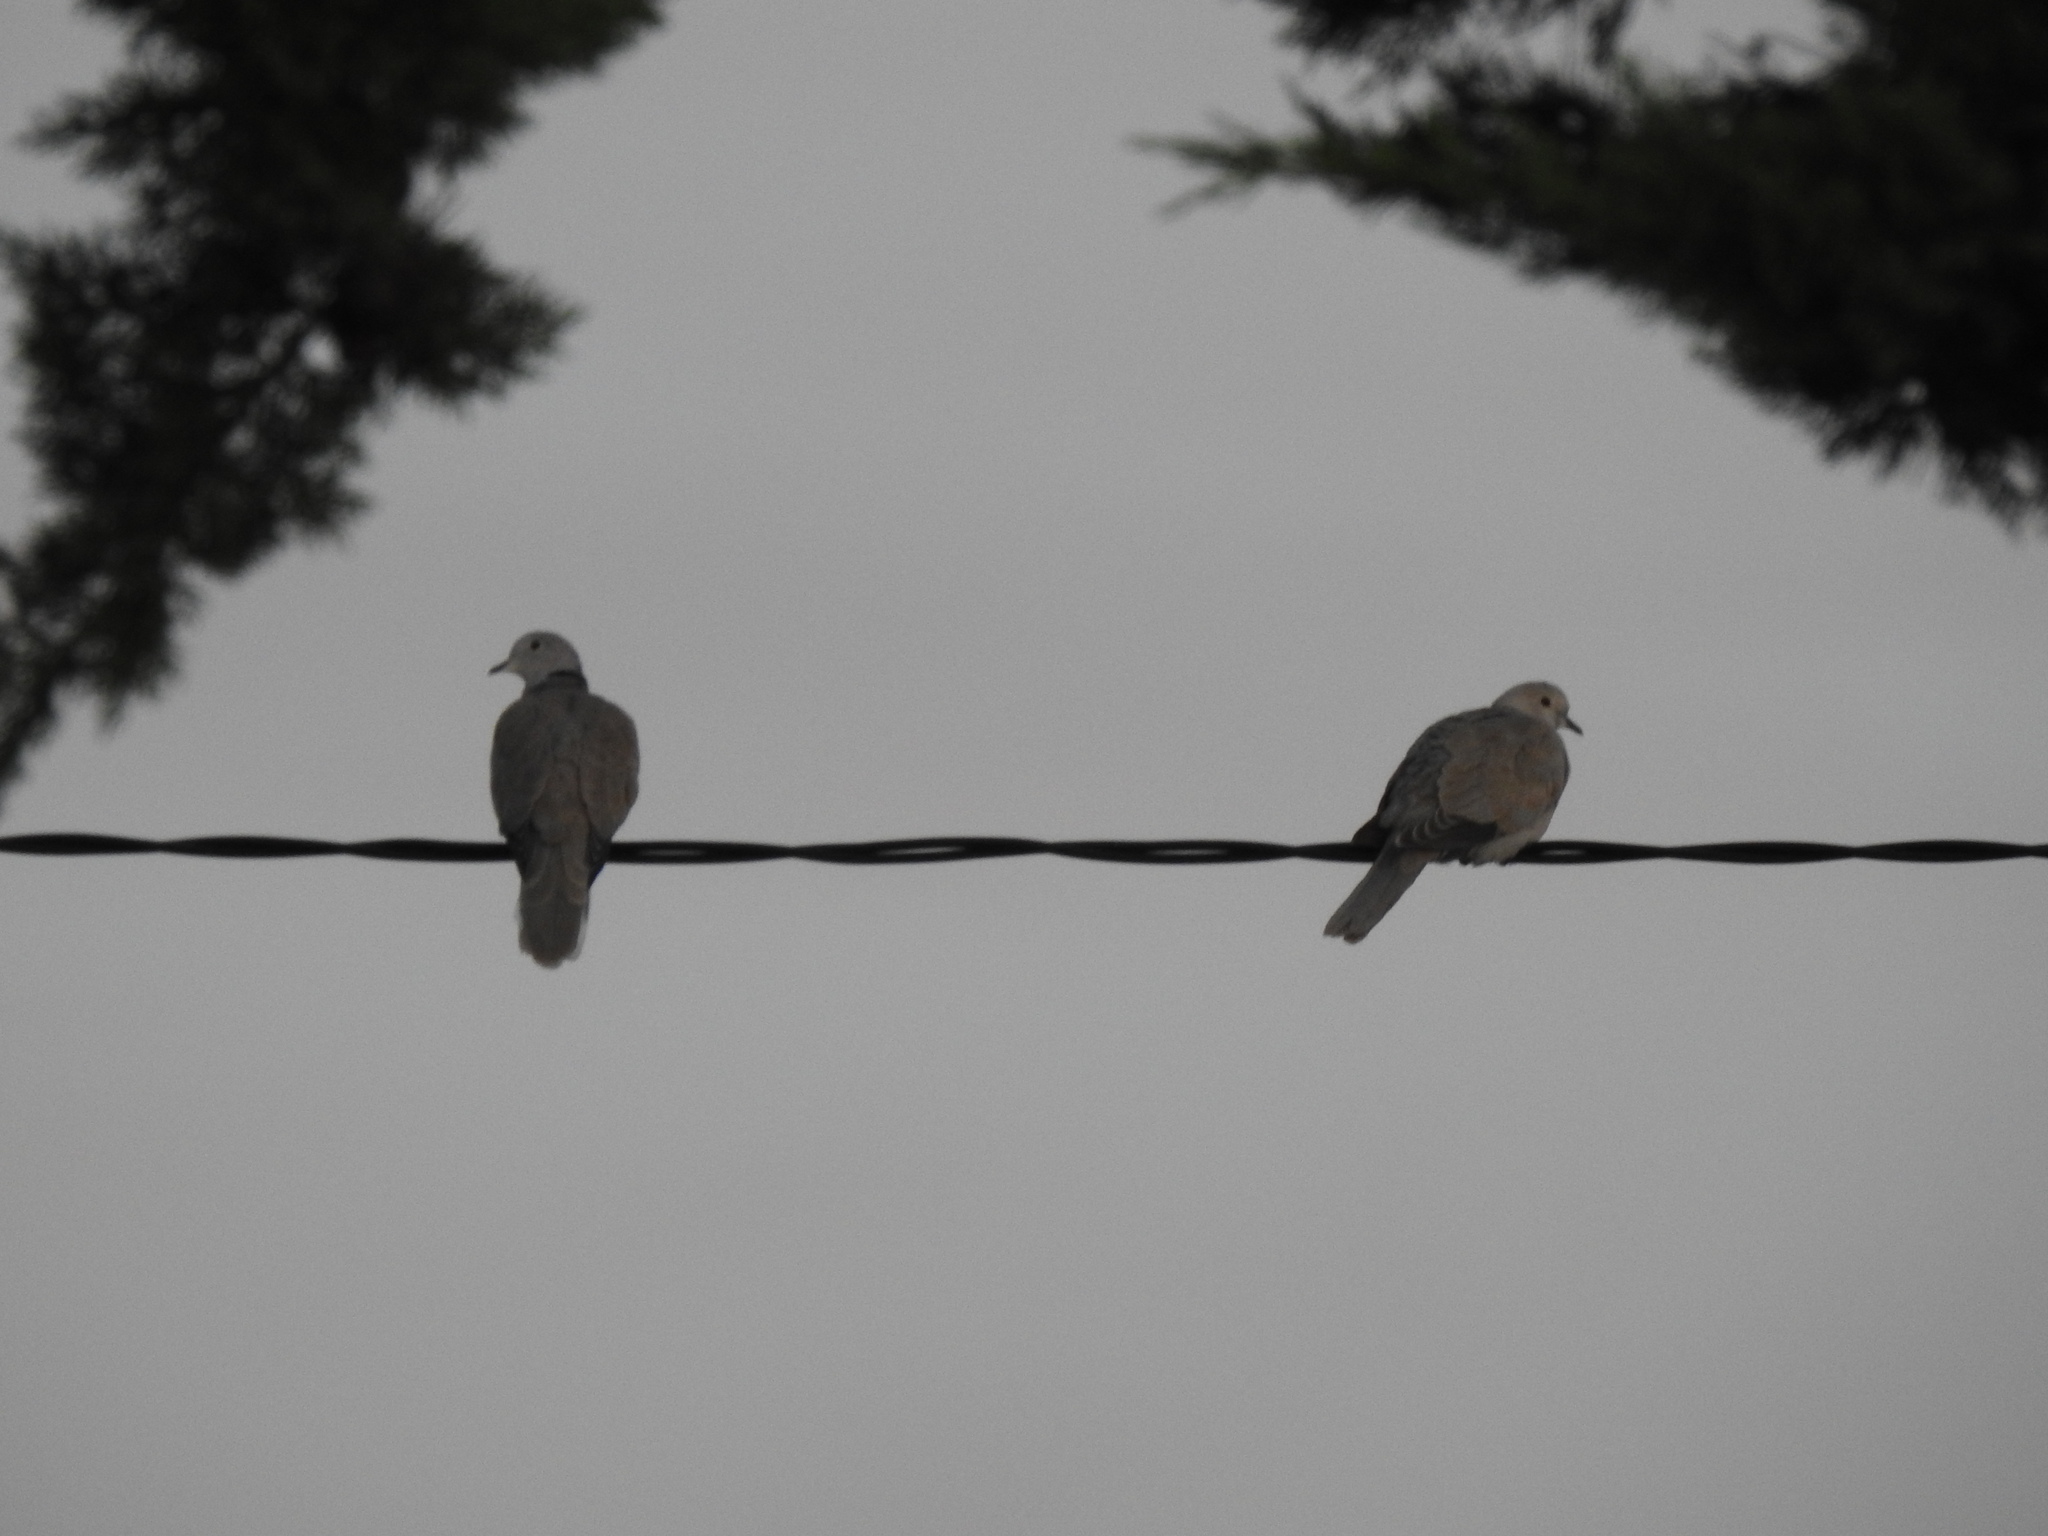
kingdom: Animalia
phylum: Chordata
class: Aves
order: Columbiformes
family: Columbidae
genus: Streptopelia
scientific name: Streptopelia decaocto
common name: Eurasian collared dove
